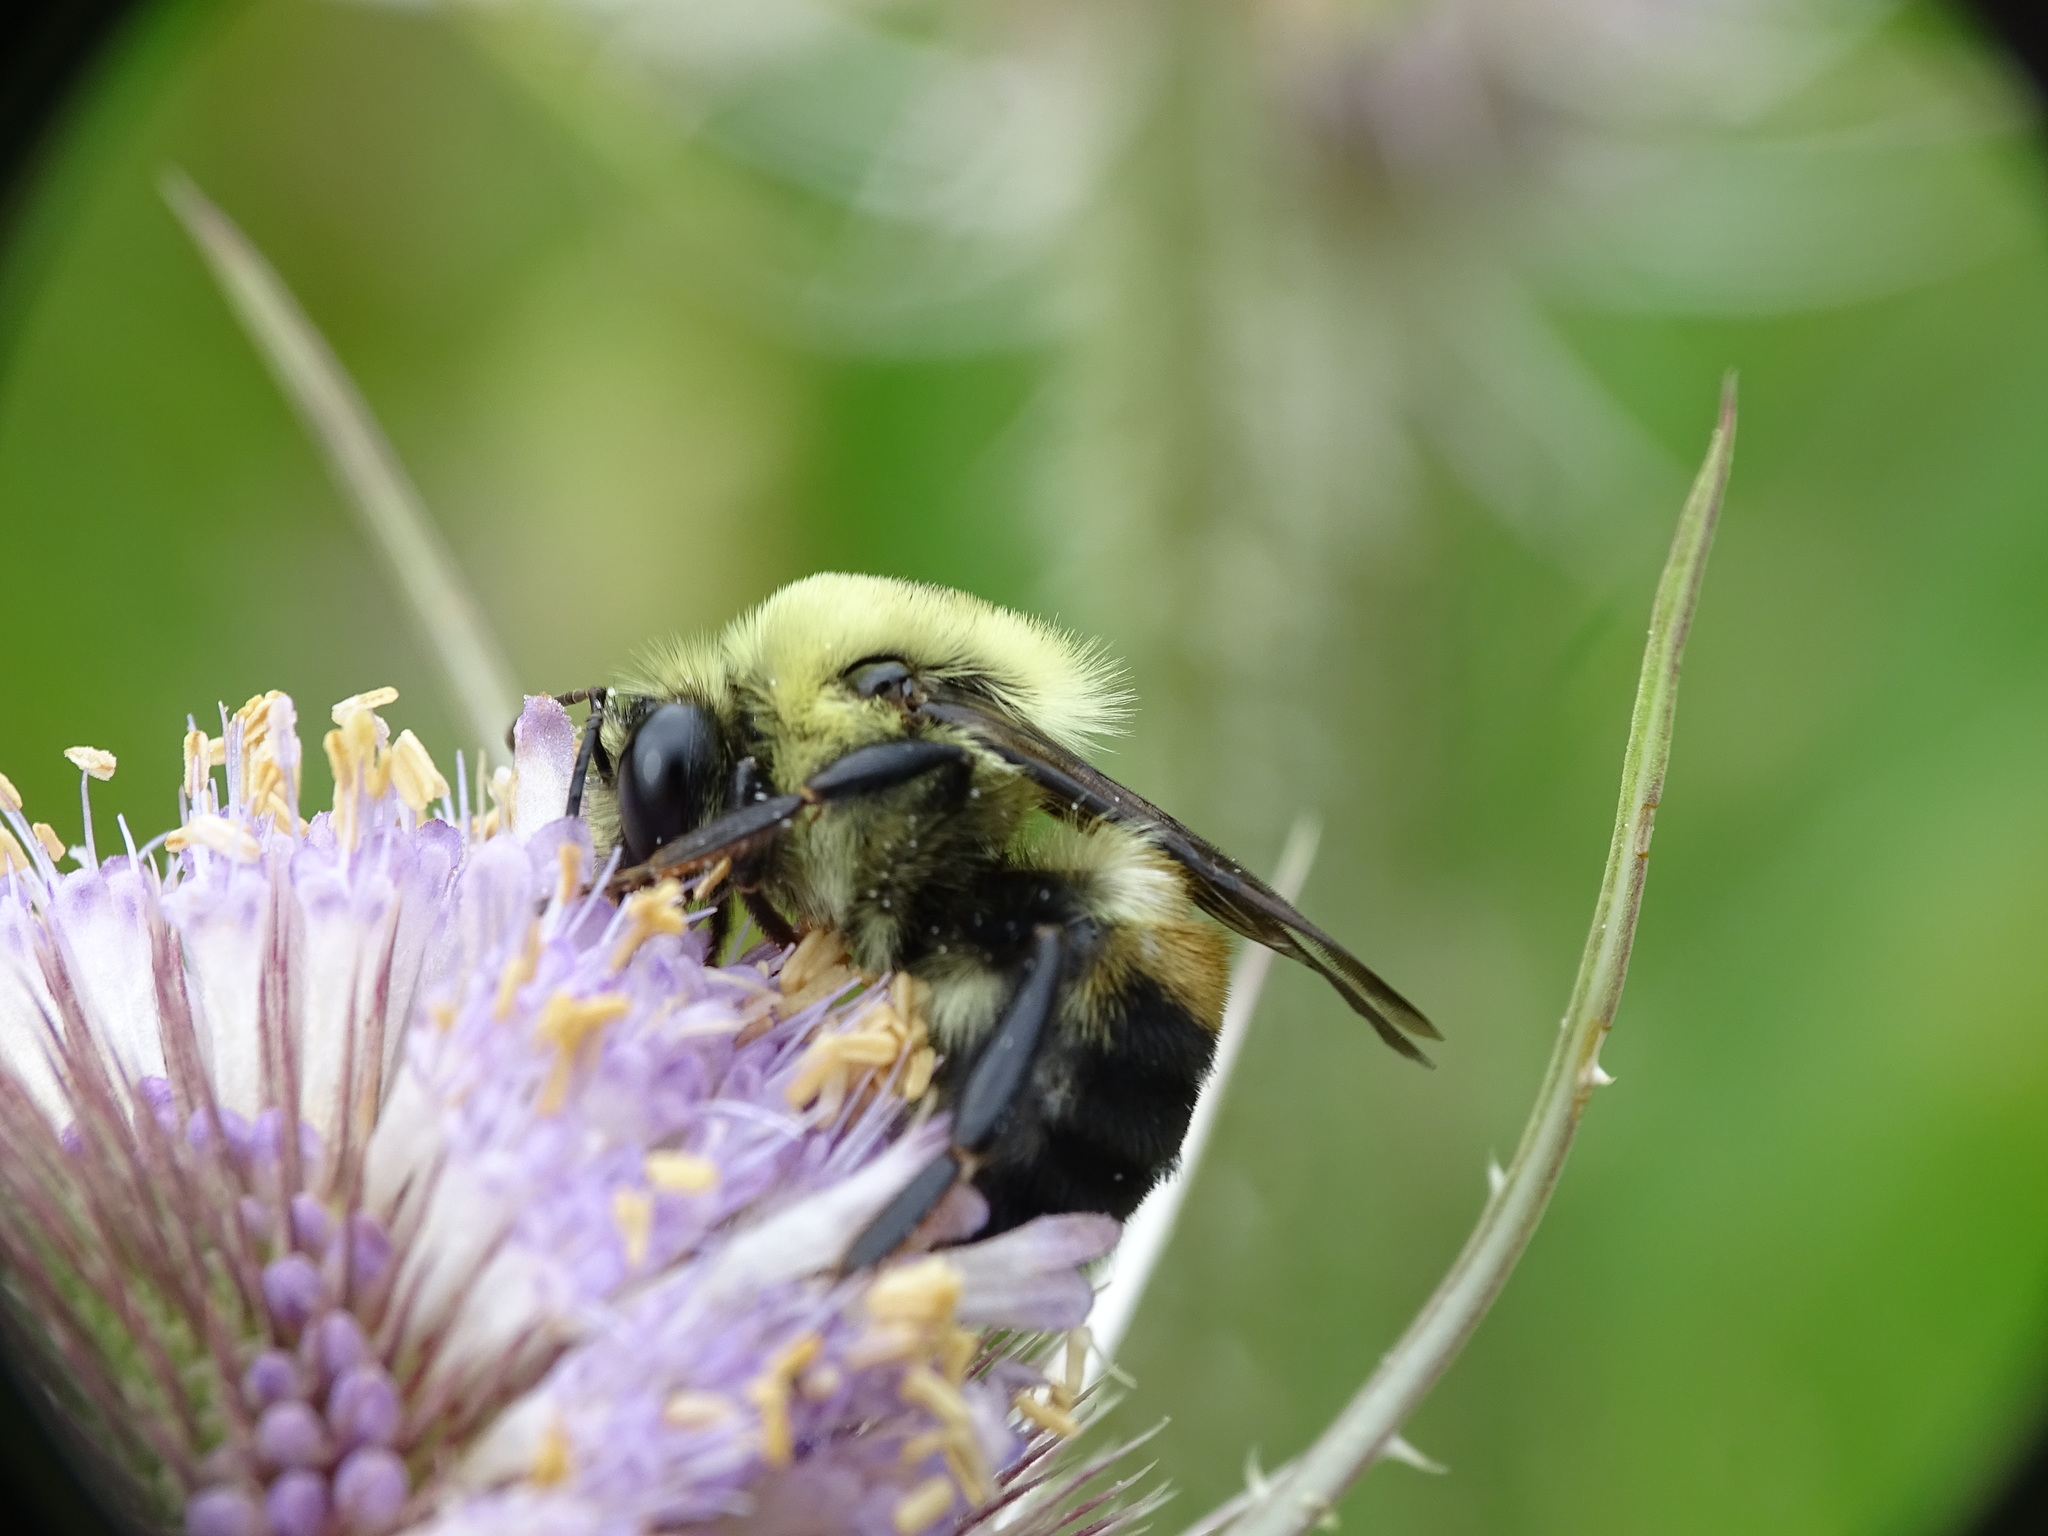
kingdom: Animalia
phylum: Arthropoda
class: Insecta
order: Hymenoptera
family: Apidae
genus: Bombus
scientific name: Bombus griseocollis
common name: Brown-belted bumble bee
